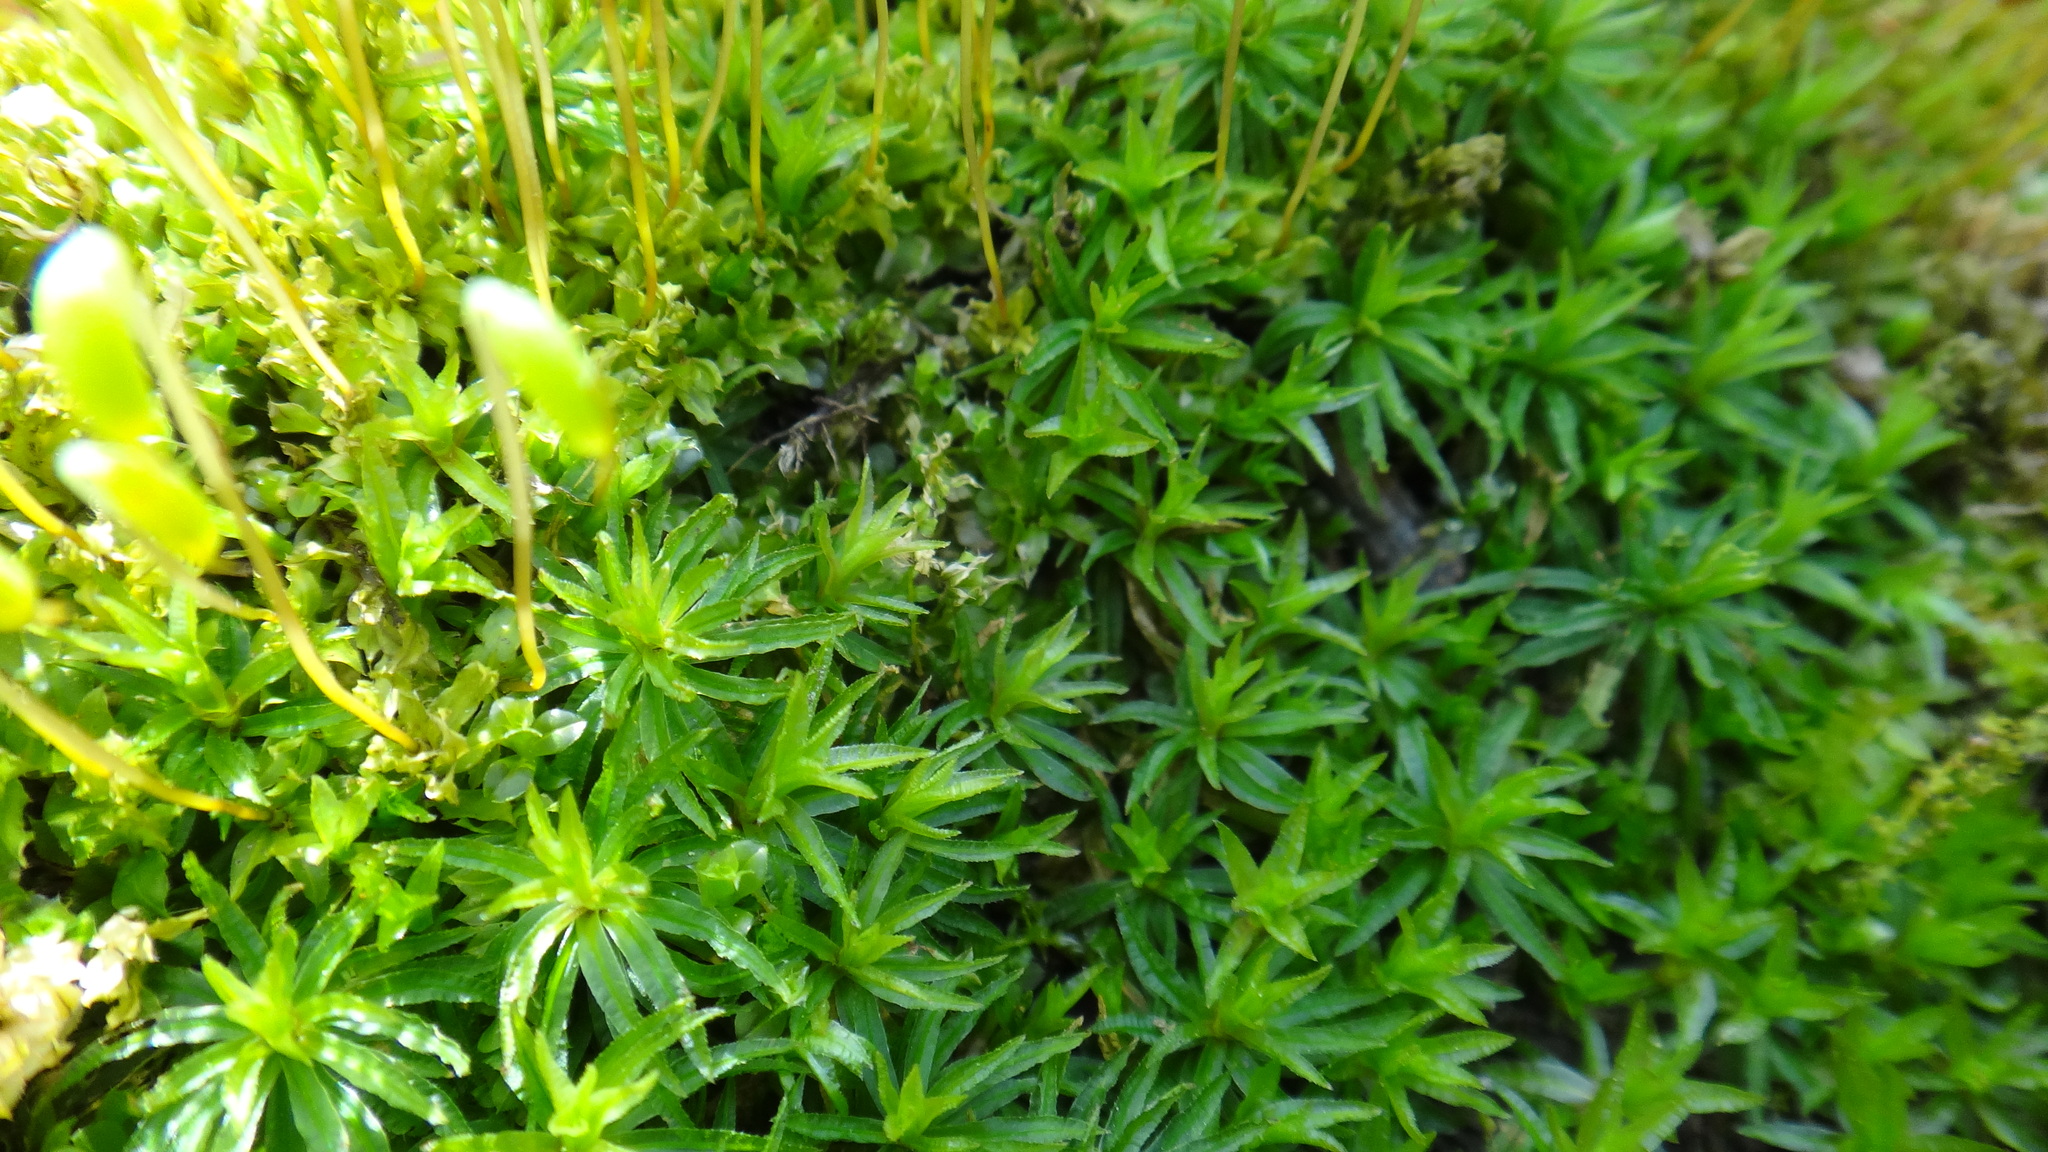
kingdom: Plantae
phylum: Bryophyta
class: Polytrichopsida
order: Polytrichales
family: Polytrichaceae
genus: Atrichum
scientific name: Atrichum undulatum
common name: Common smoothcap
